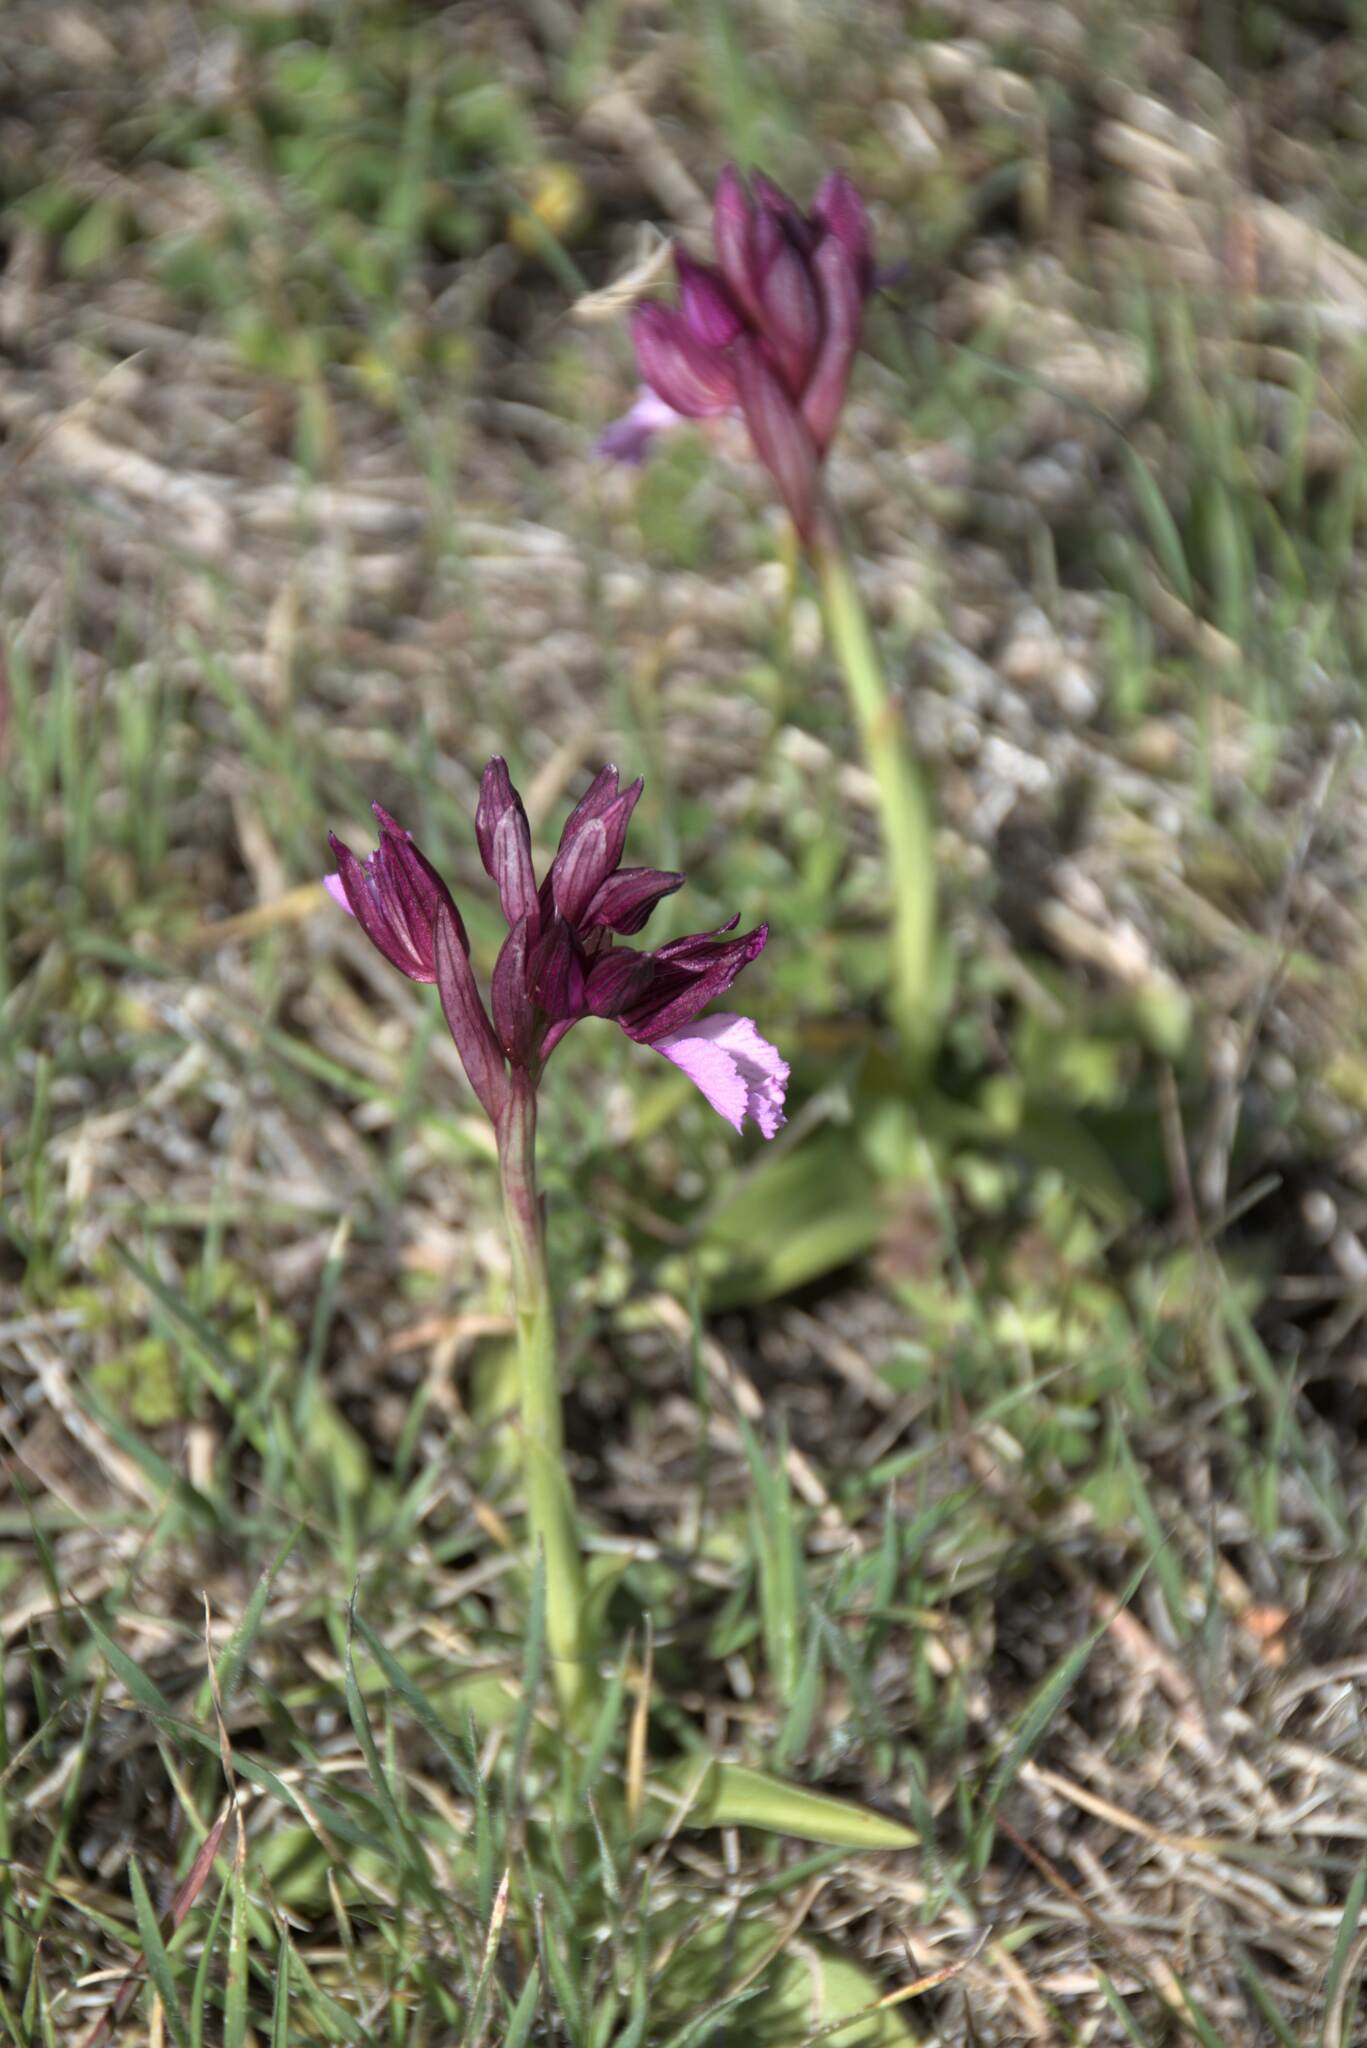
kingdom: Plantae
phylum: Tracheophyta
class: Liliopsida
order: Asparagales
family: Orchidaceae
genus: Anacamptis
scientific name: Anacamptis papilionacea
